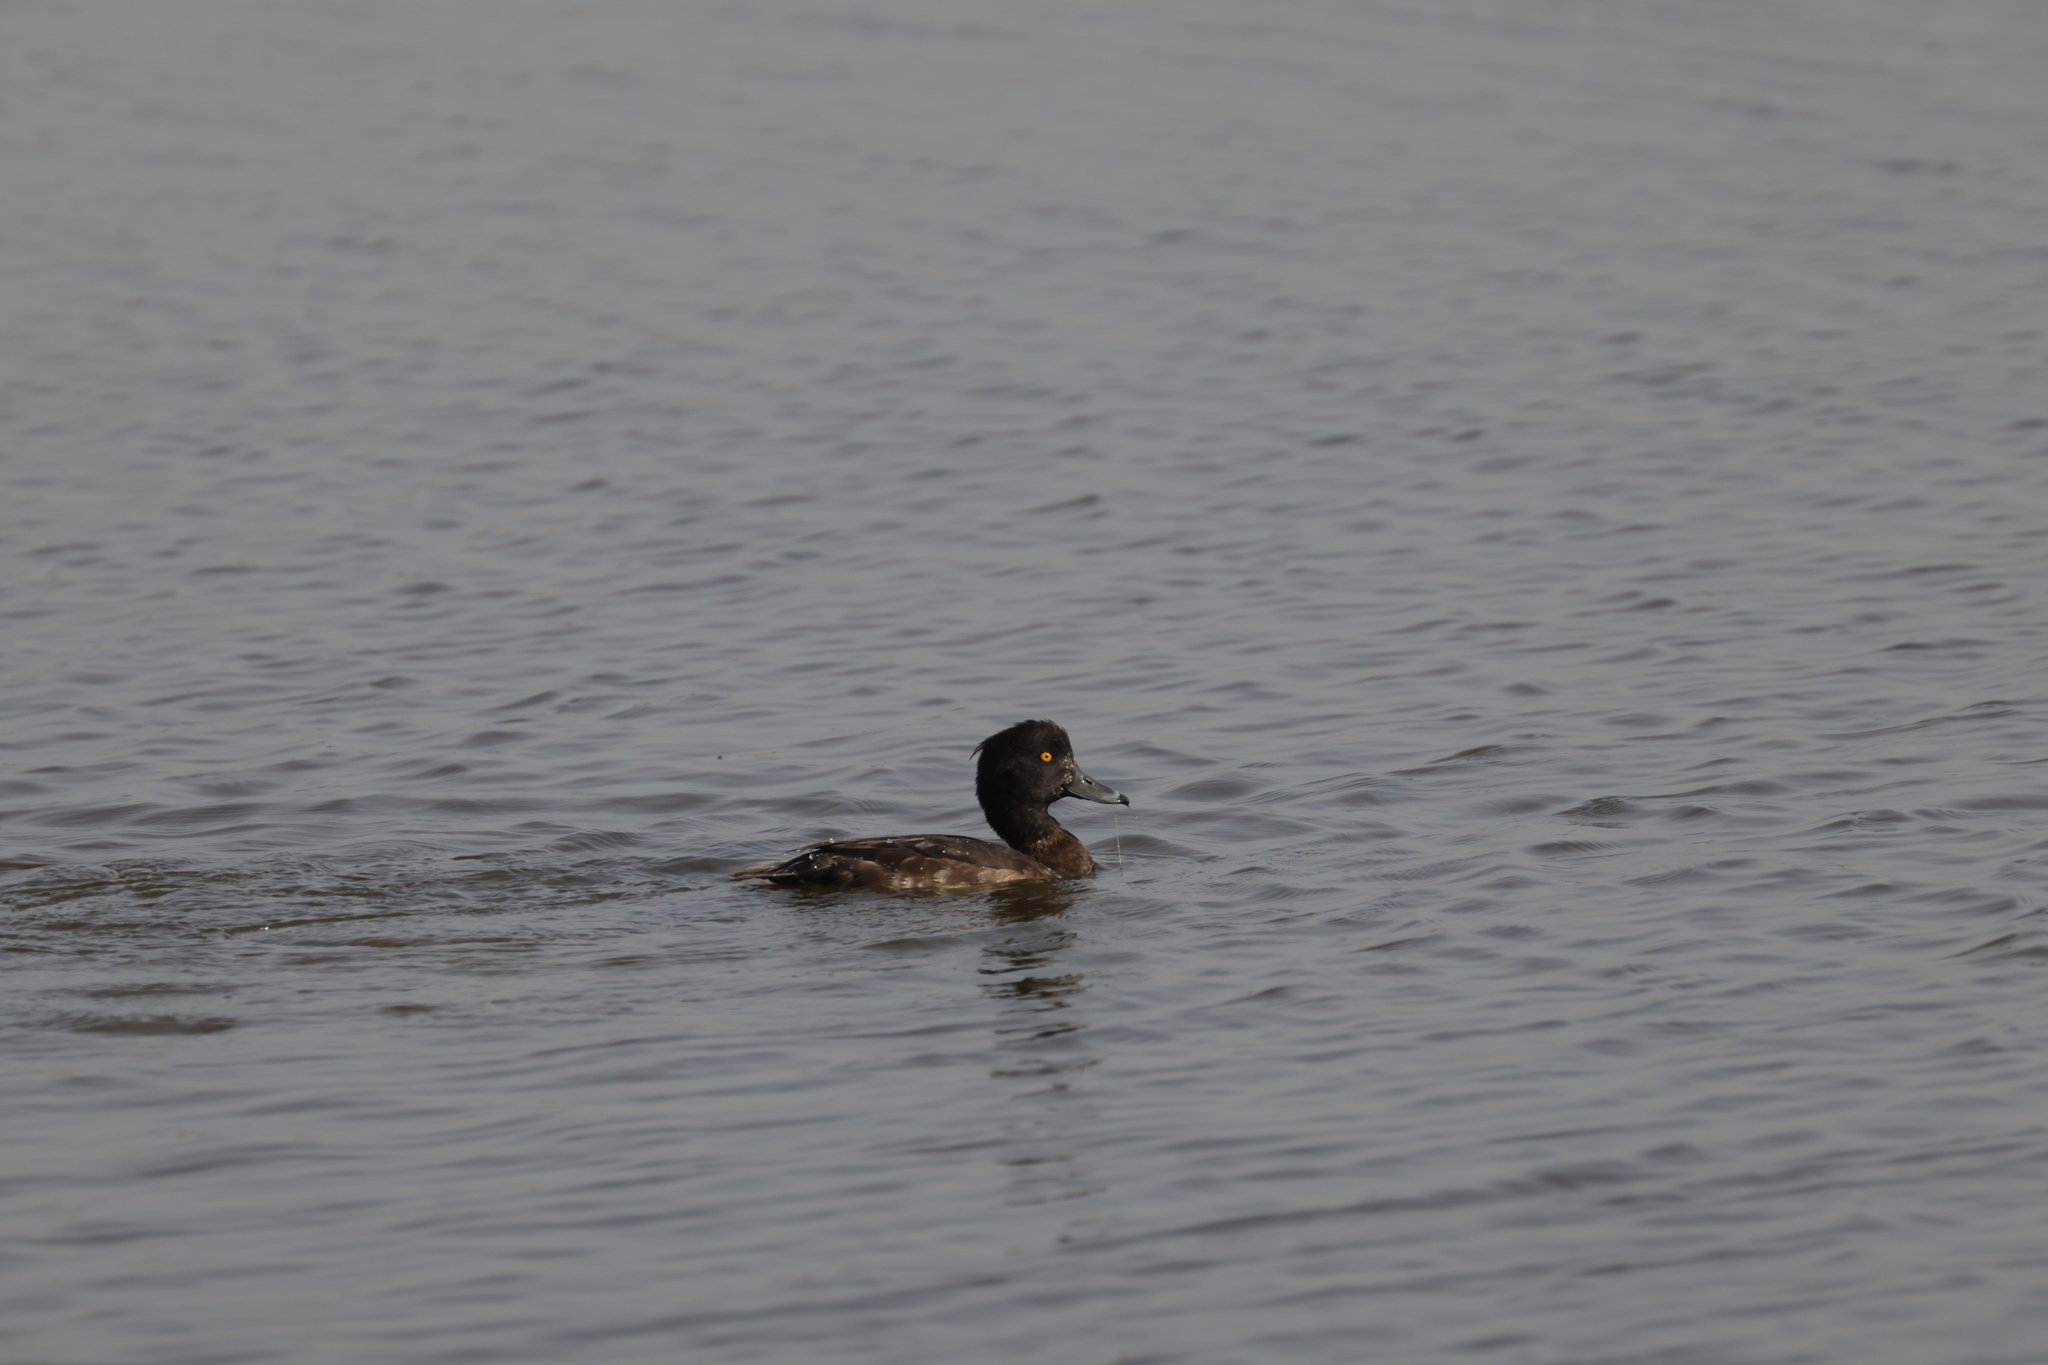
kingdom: Animalia
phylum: Chordata
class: Aves
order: Anseriformes
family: Anatidae
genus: Aythya
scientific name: Aythya fuligula
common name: Tufted duck
